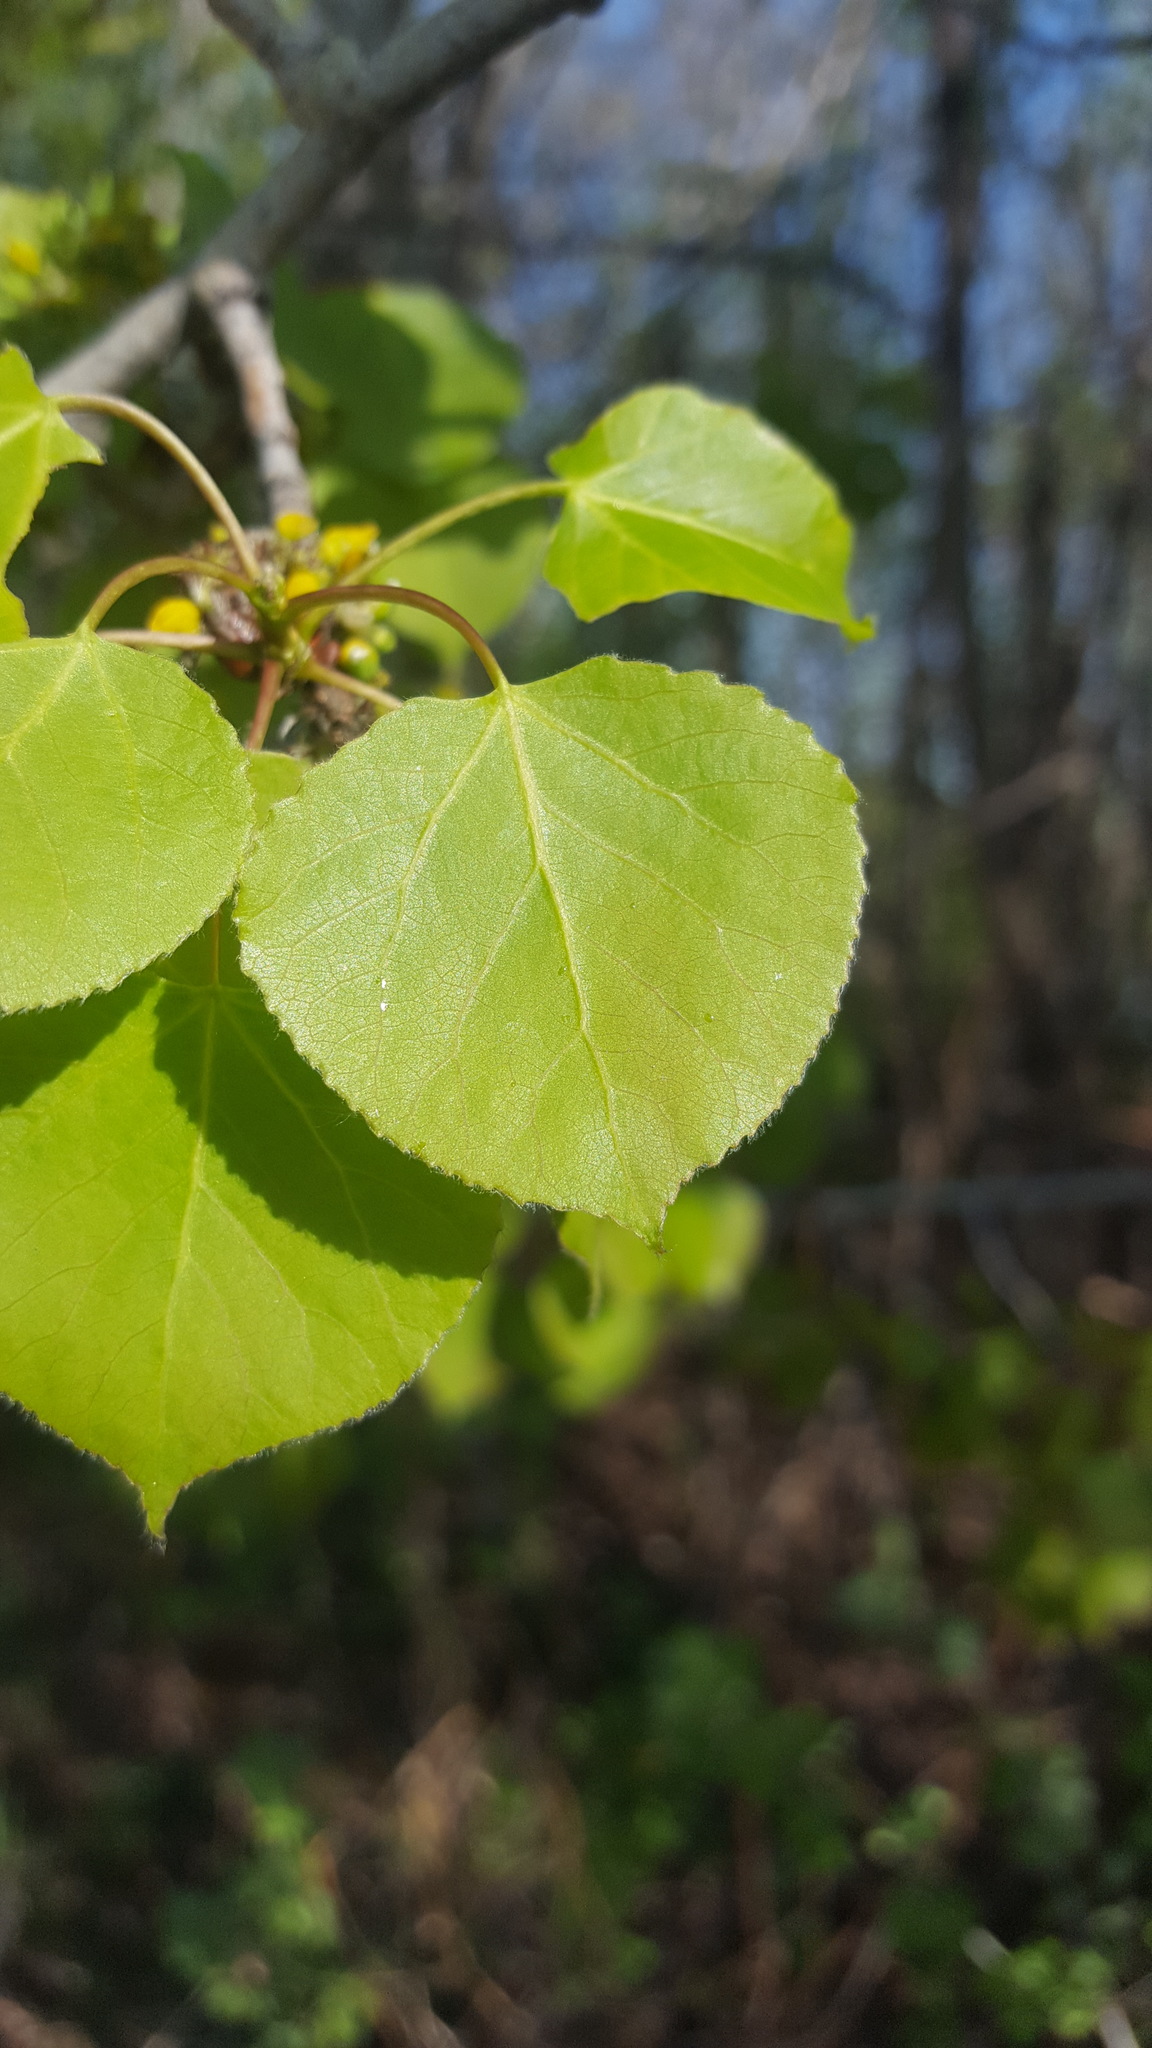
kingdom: Plantae
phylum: Tracheophyta
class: Magnoliopsida
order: Malpighiales
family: Salicaceae
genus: Populus
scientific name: Populus tremuloides
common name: Quaking aspen
